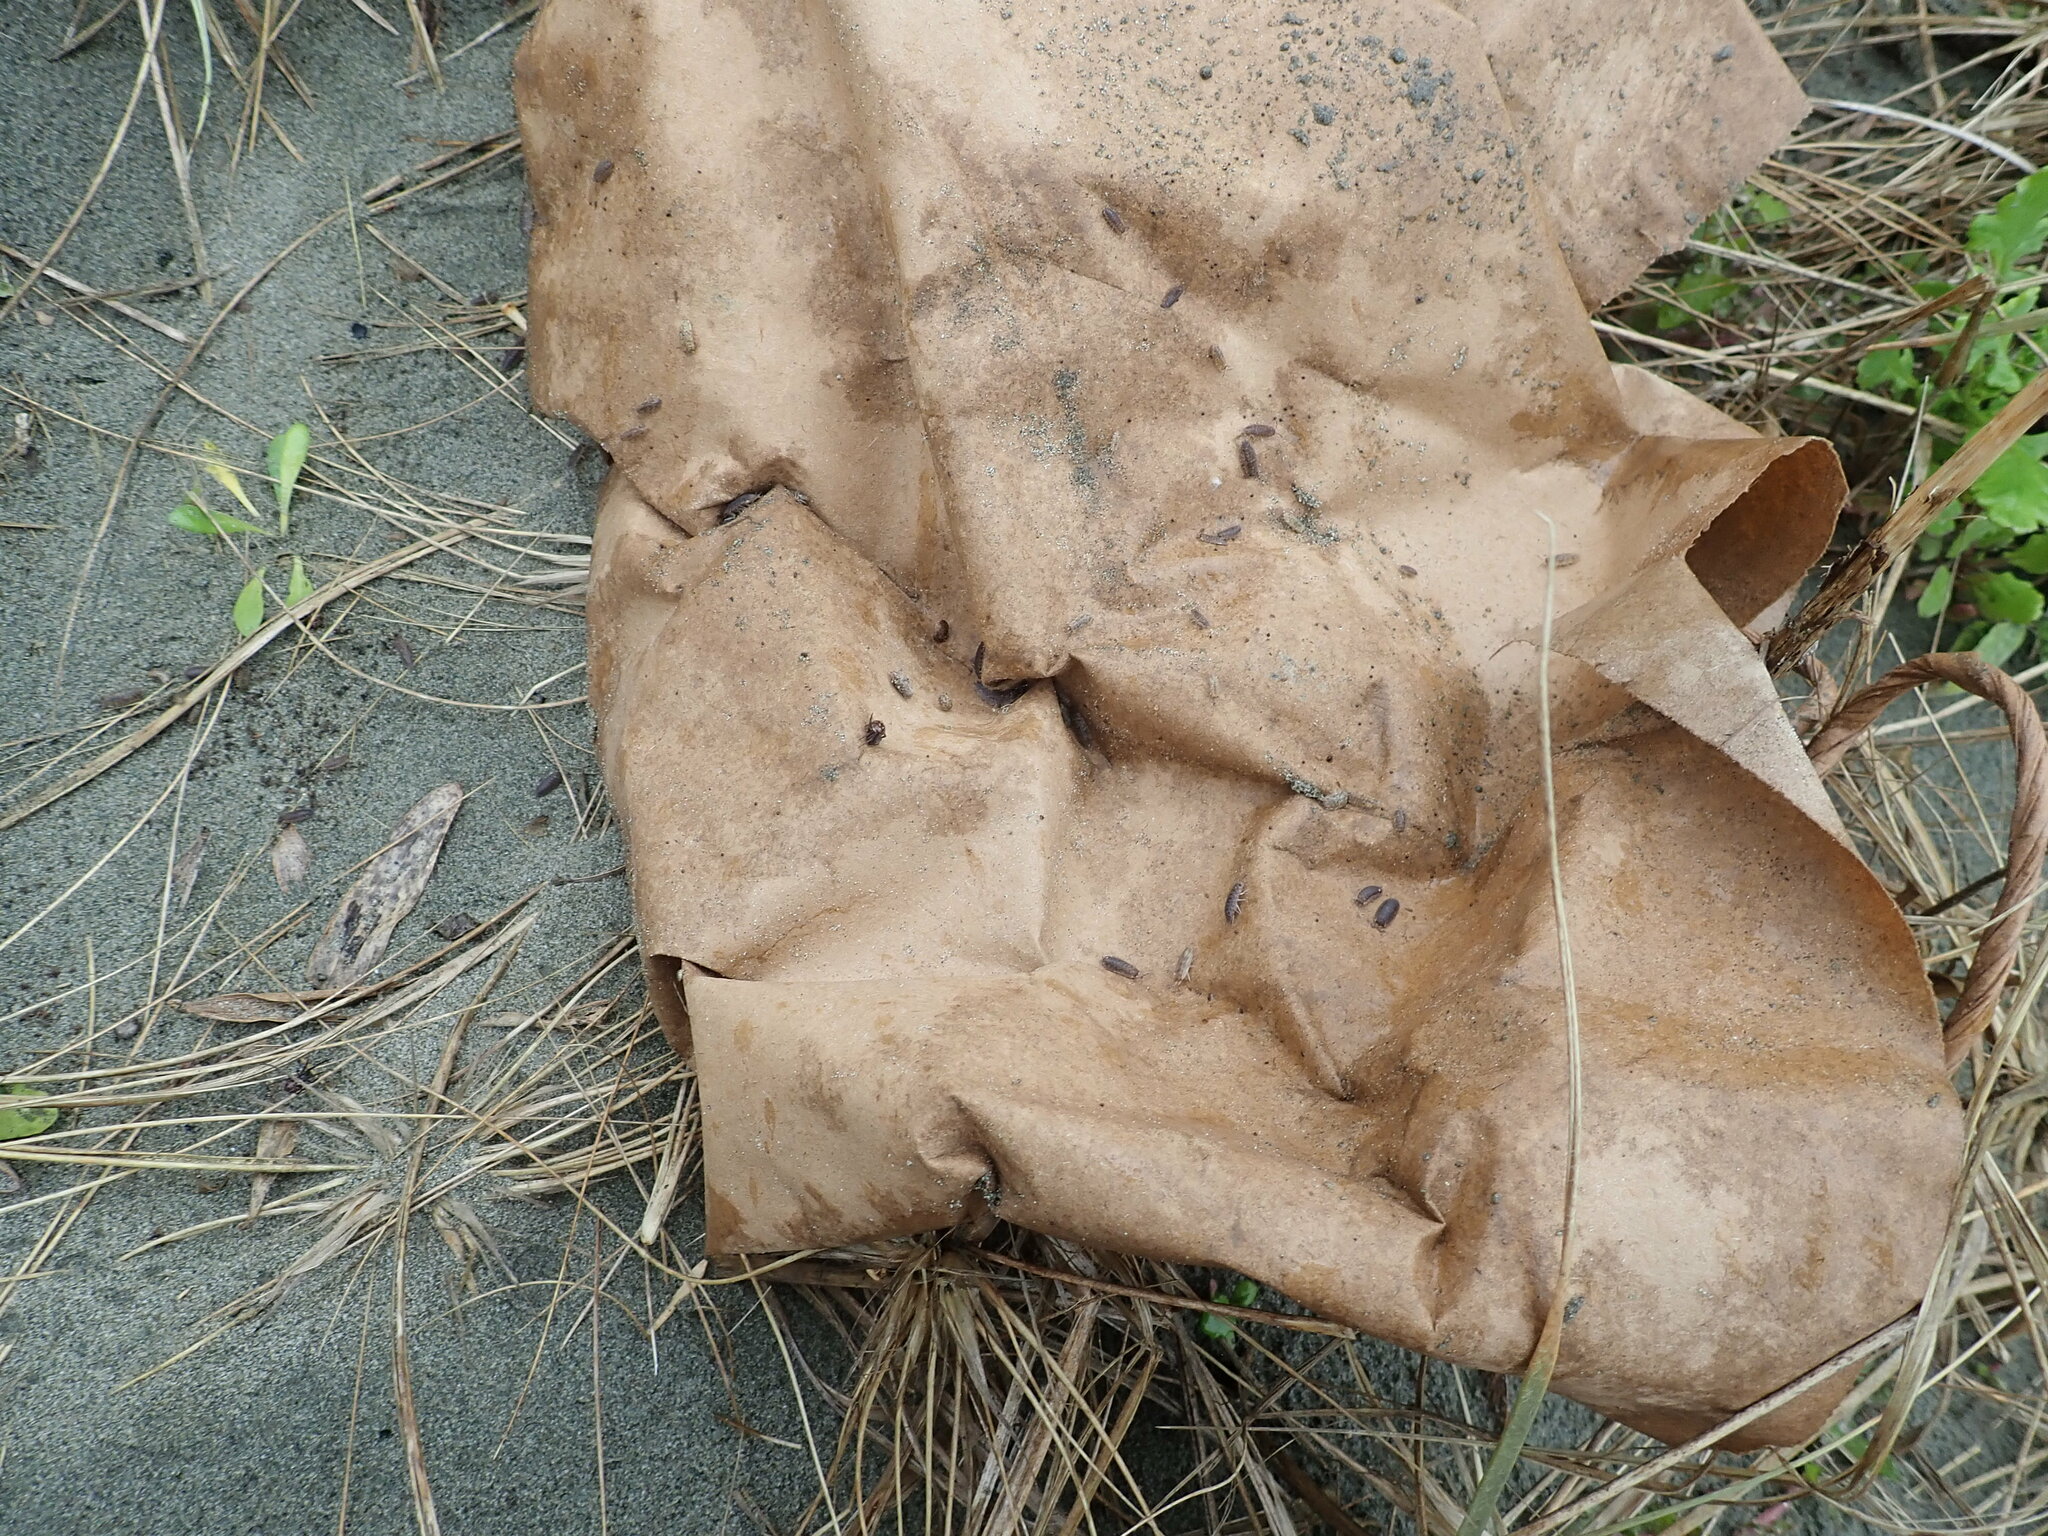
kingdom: Animalia
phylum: Arthropoda
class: Arachnida
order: Araneae
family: Theridiidae
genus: Steatoda
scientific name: Steatoda capensis
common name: Cobweb weaver
